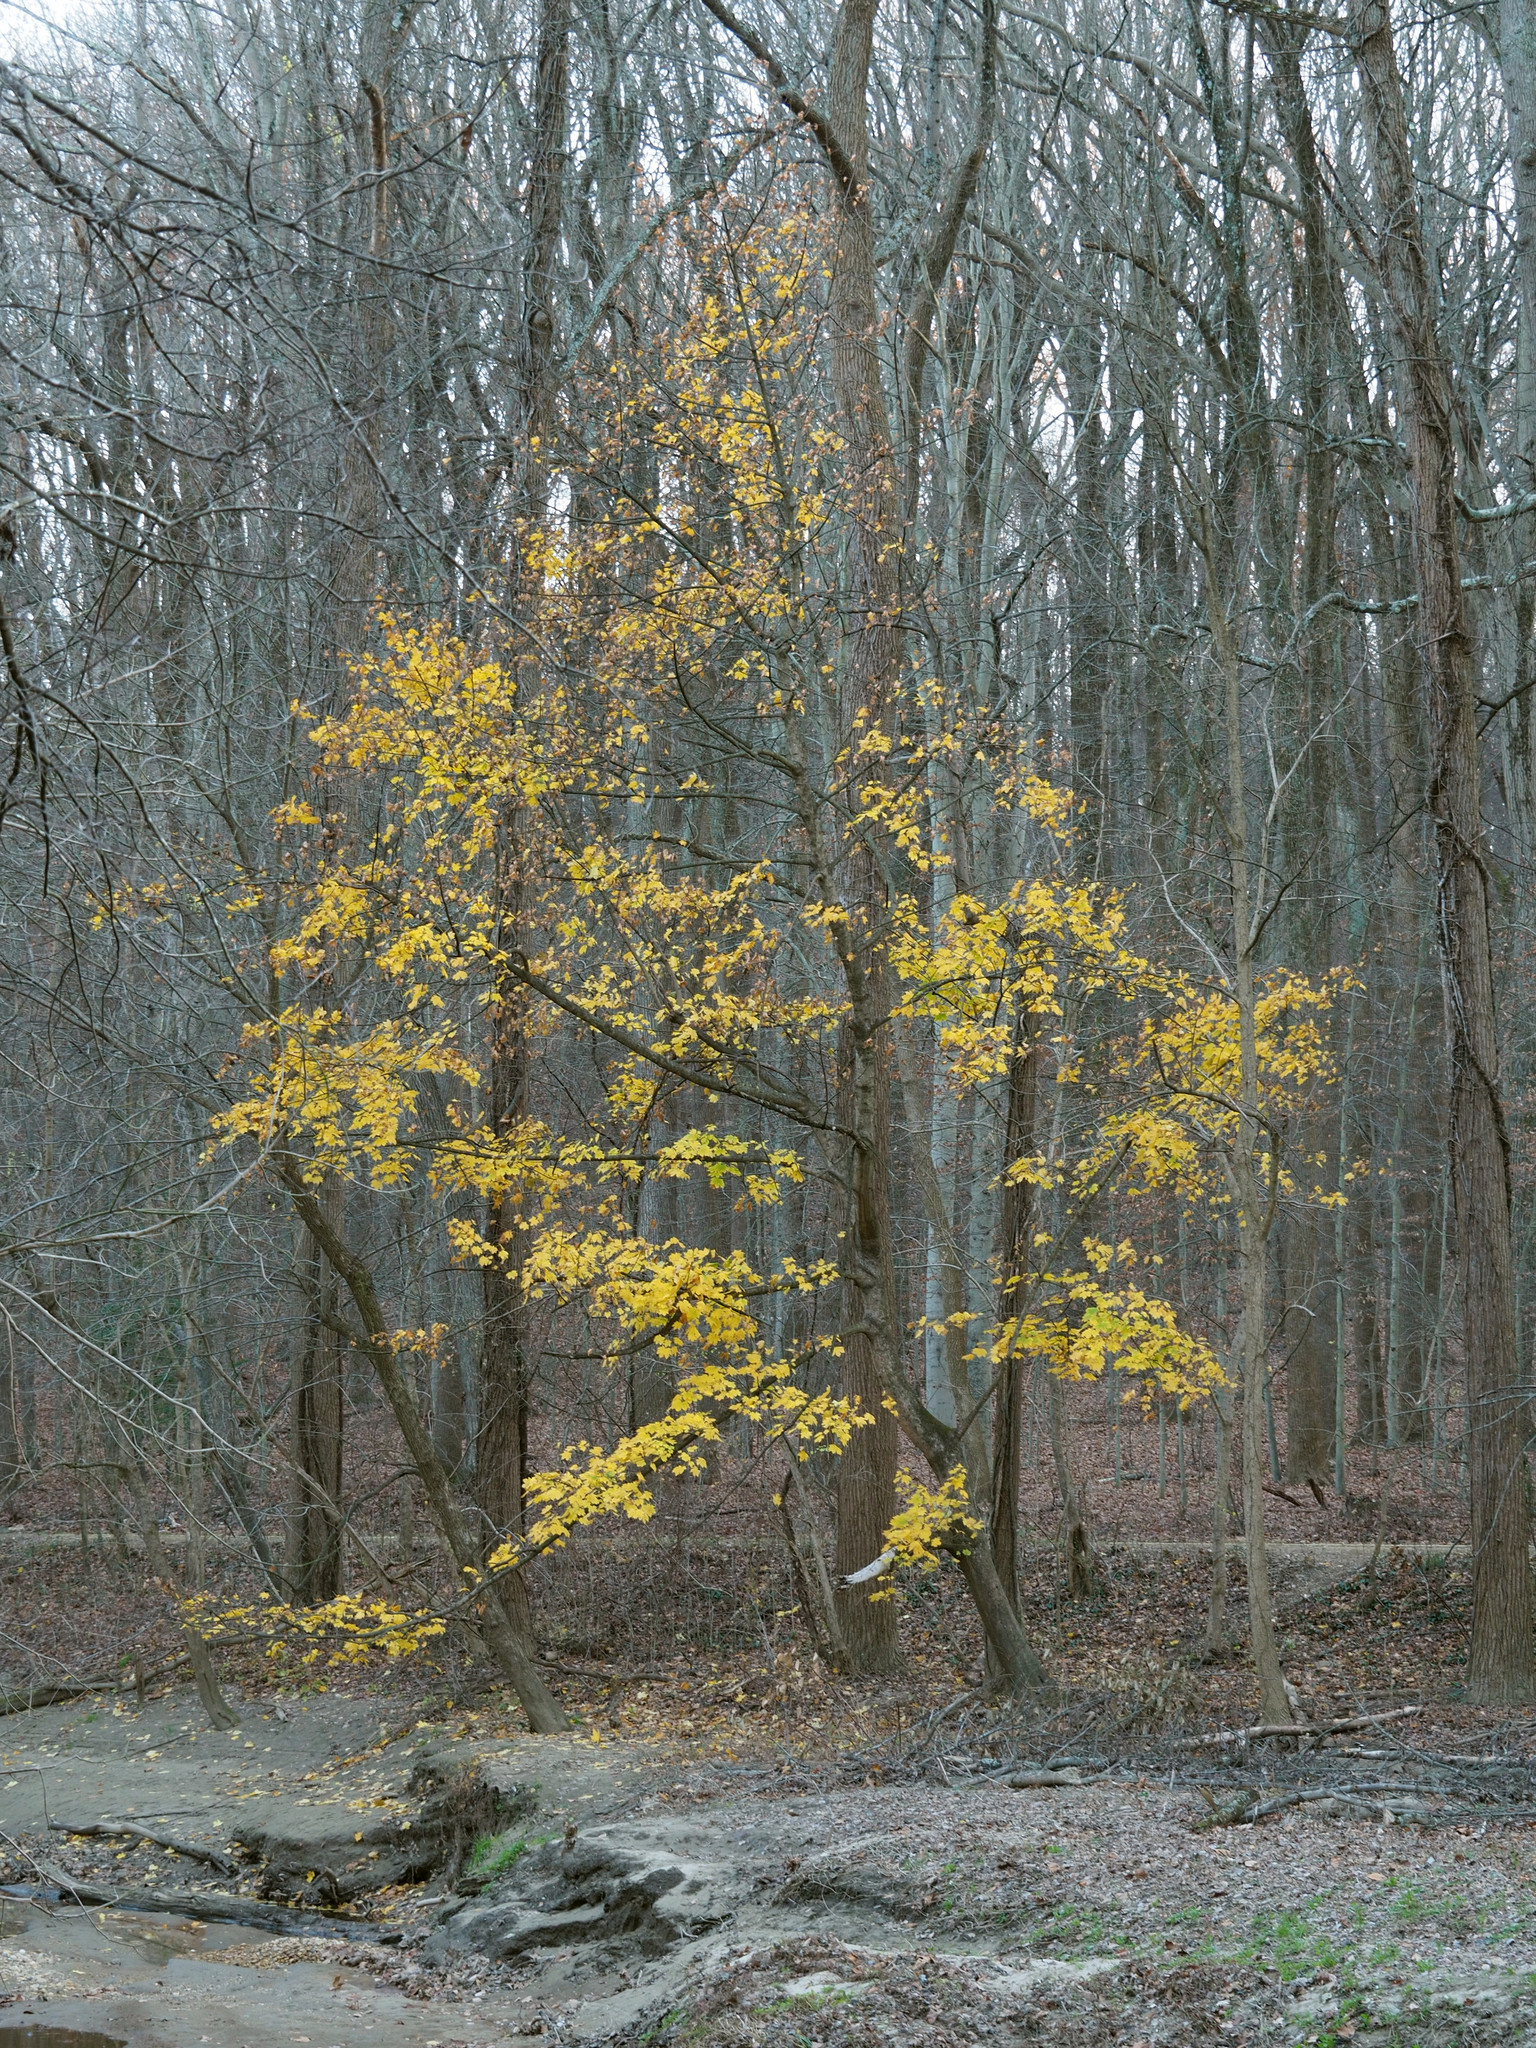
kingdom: Plantae
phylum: Tracheophyta
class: Magnoliopsida
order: Sapindales
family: Sapindaceae
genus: Acer
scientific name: Acer platanoides
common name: Norway maple
